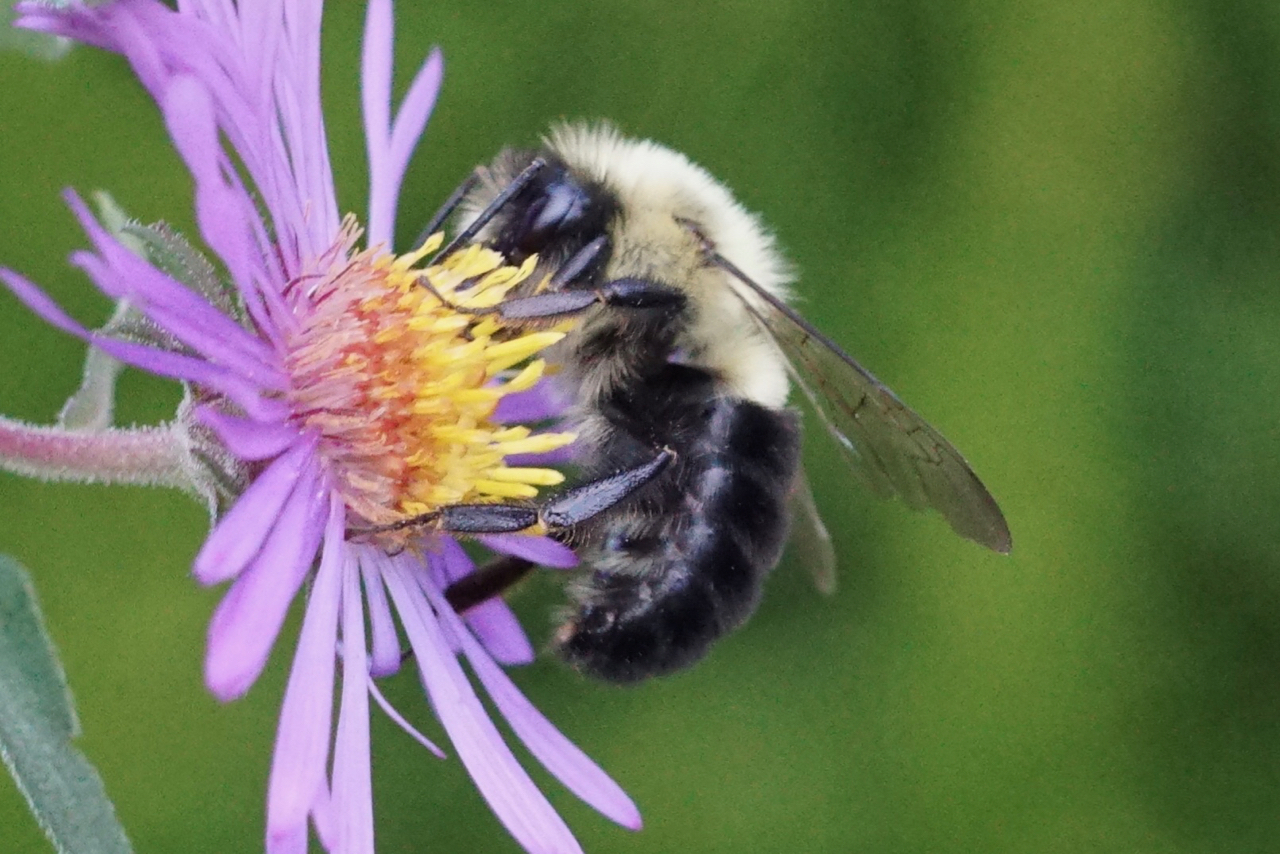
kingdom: Animalia
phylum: Arthropoda
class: Insecta
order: Hymenoptera
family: Apidae
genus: Bombus
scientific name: Bombus impatiens
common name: Common eastern bumble bee
